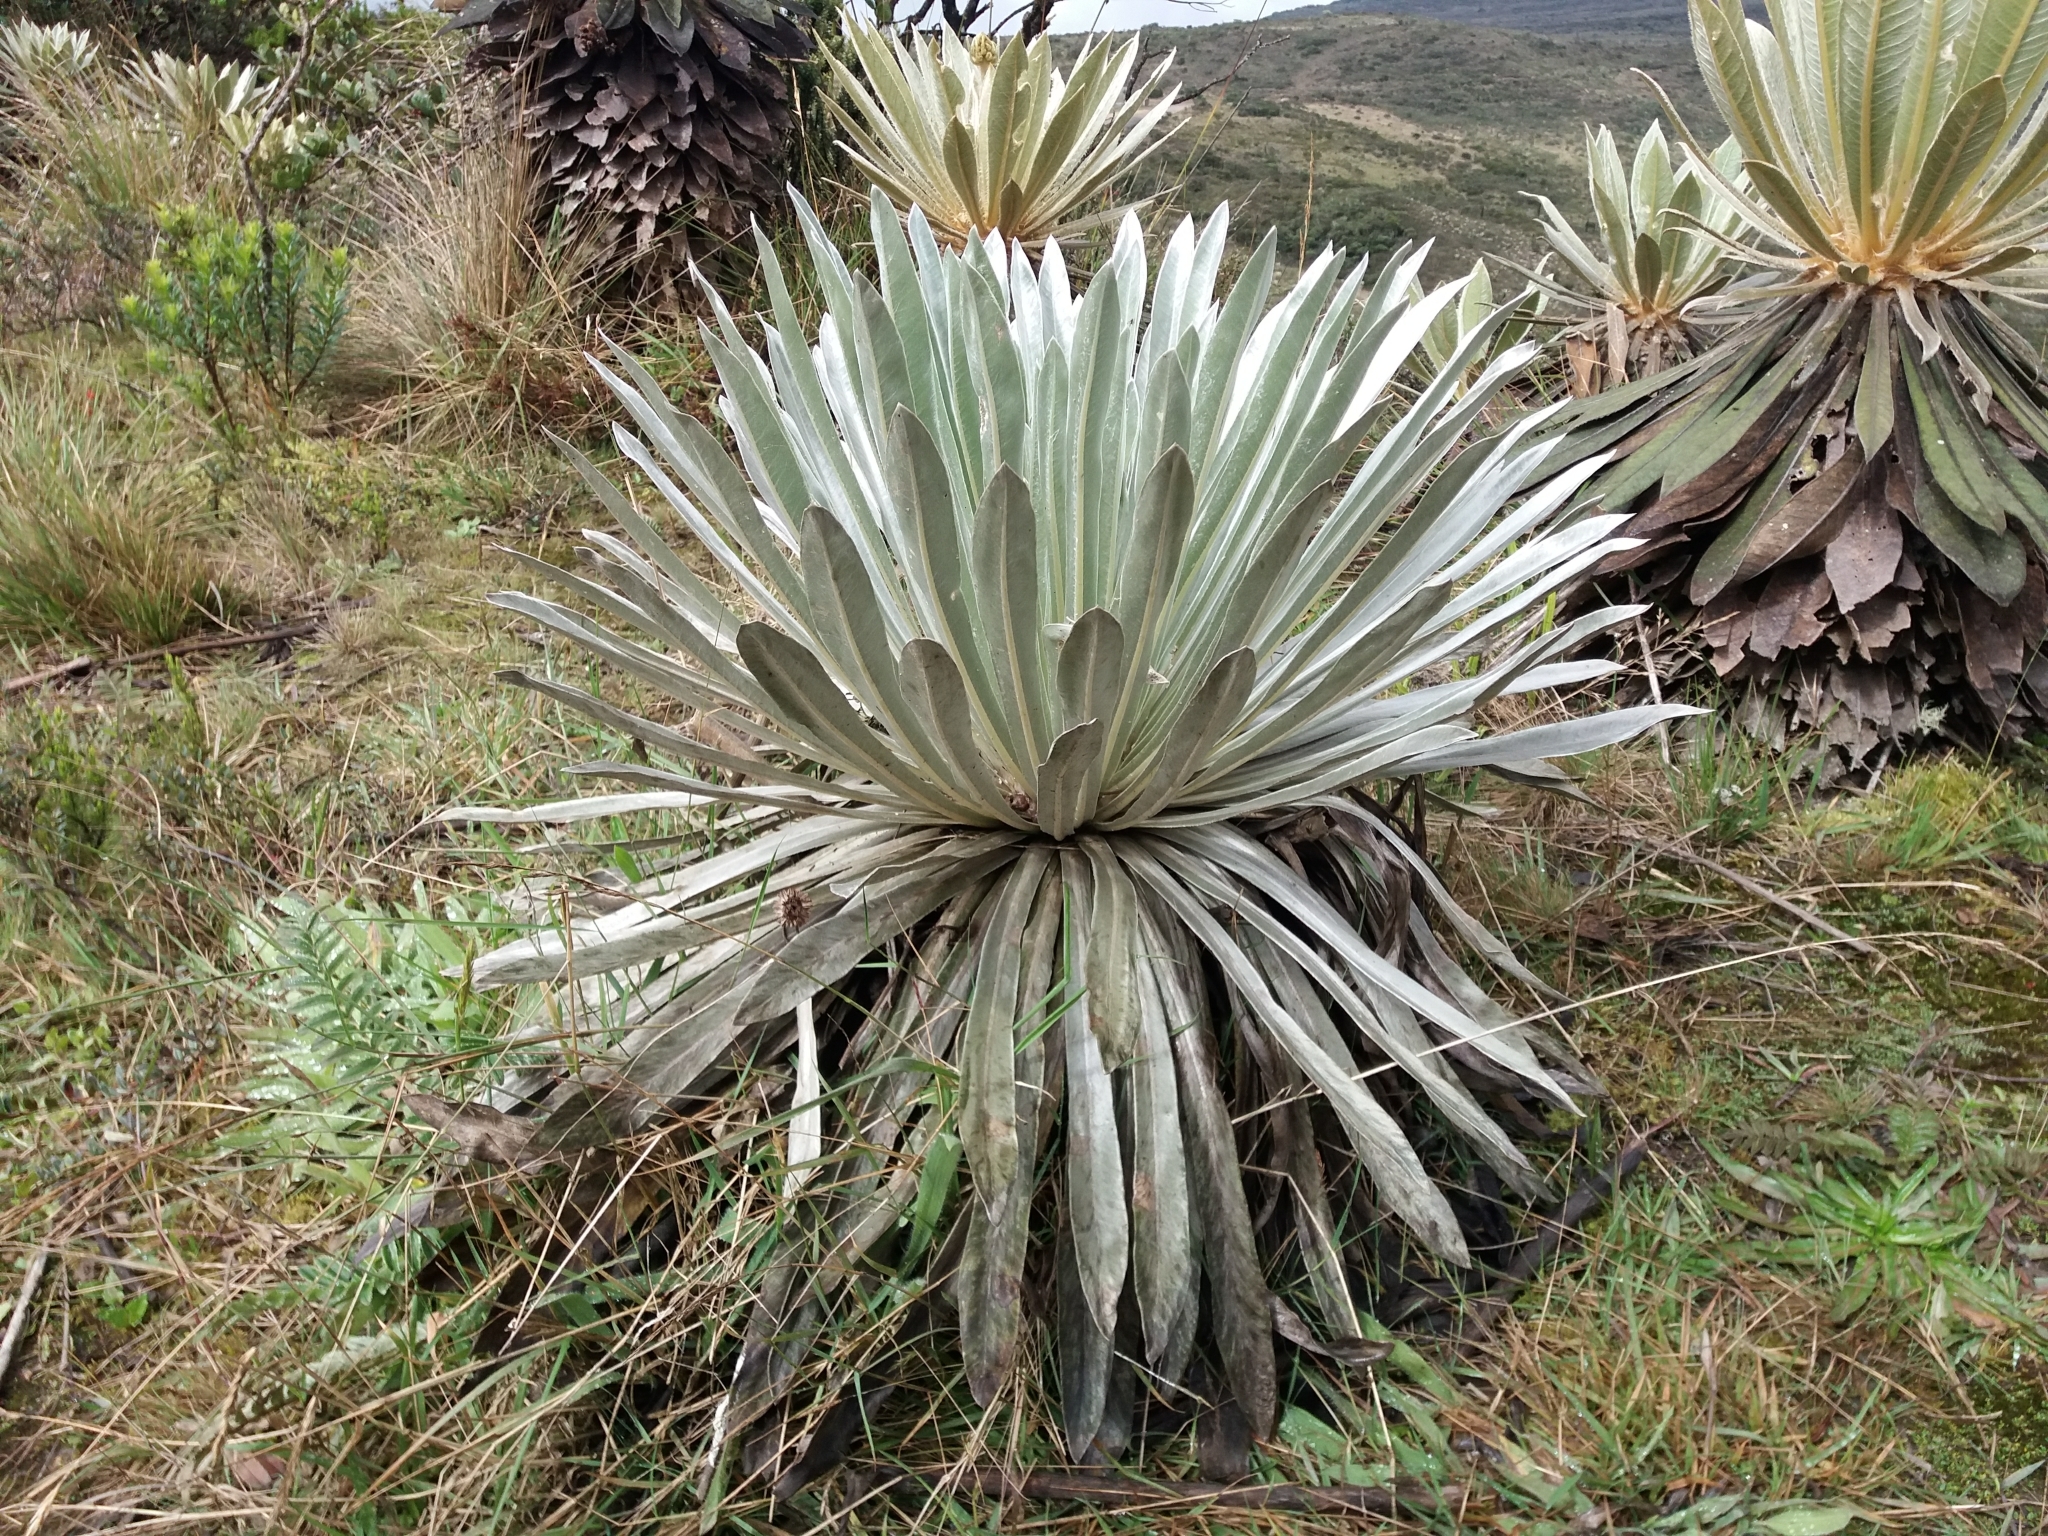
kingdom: Plantae
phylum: Tracheophyta
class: Magnoliopsida
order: Asterales
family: Asteraceae
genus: Espeletia
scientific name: Espeletia argentea
